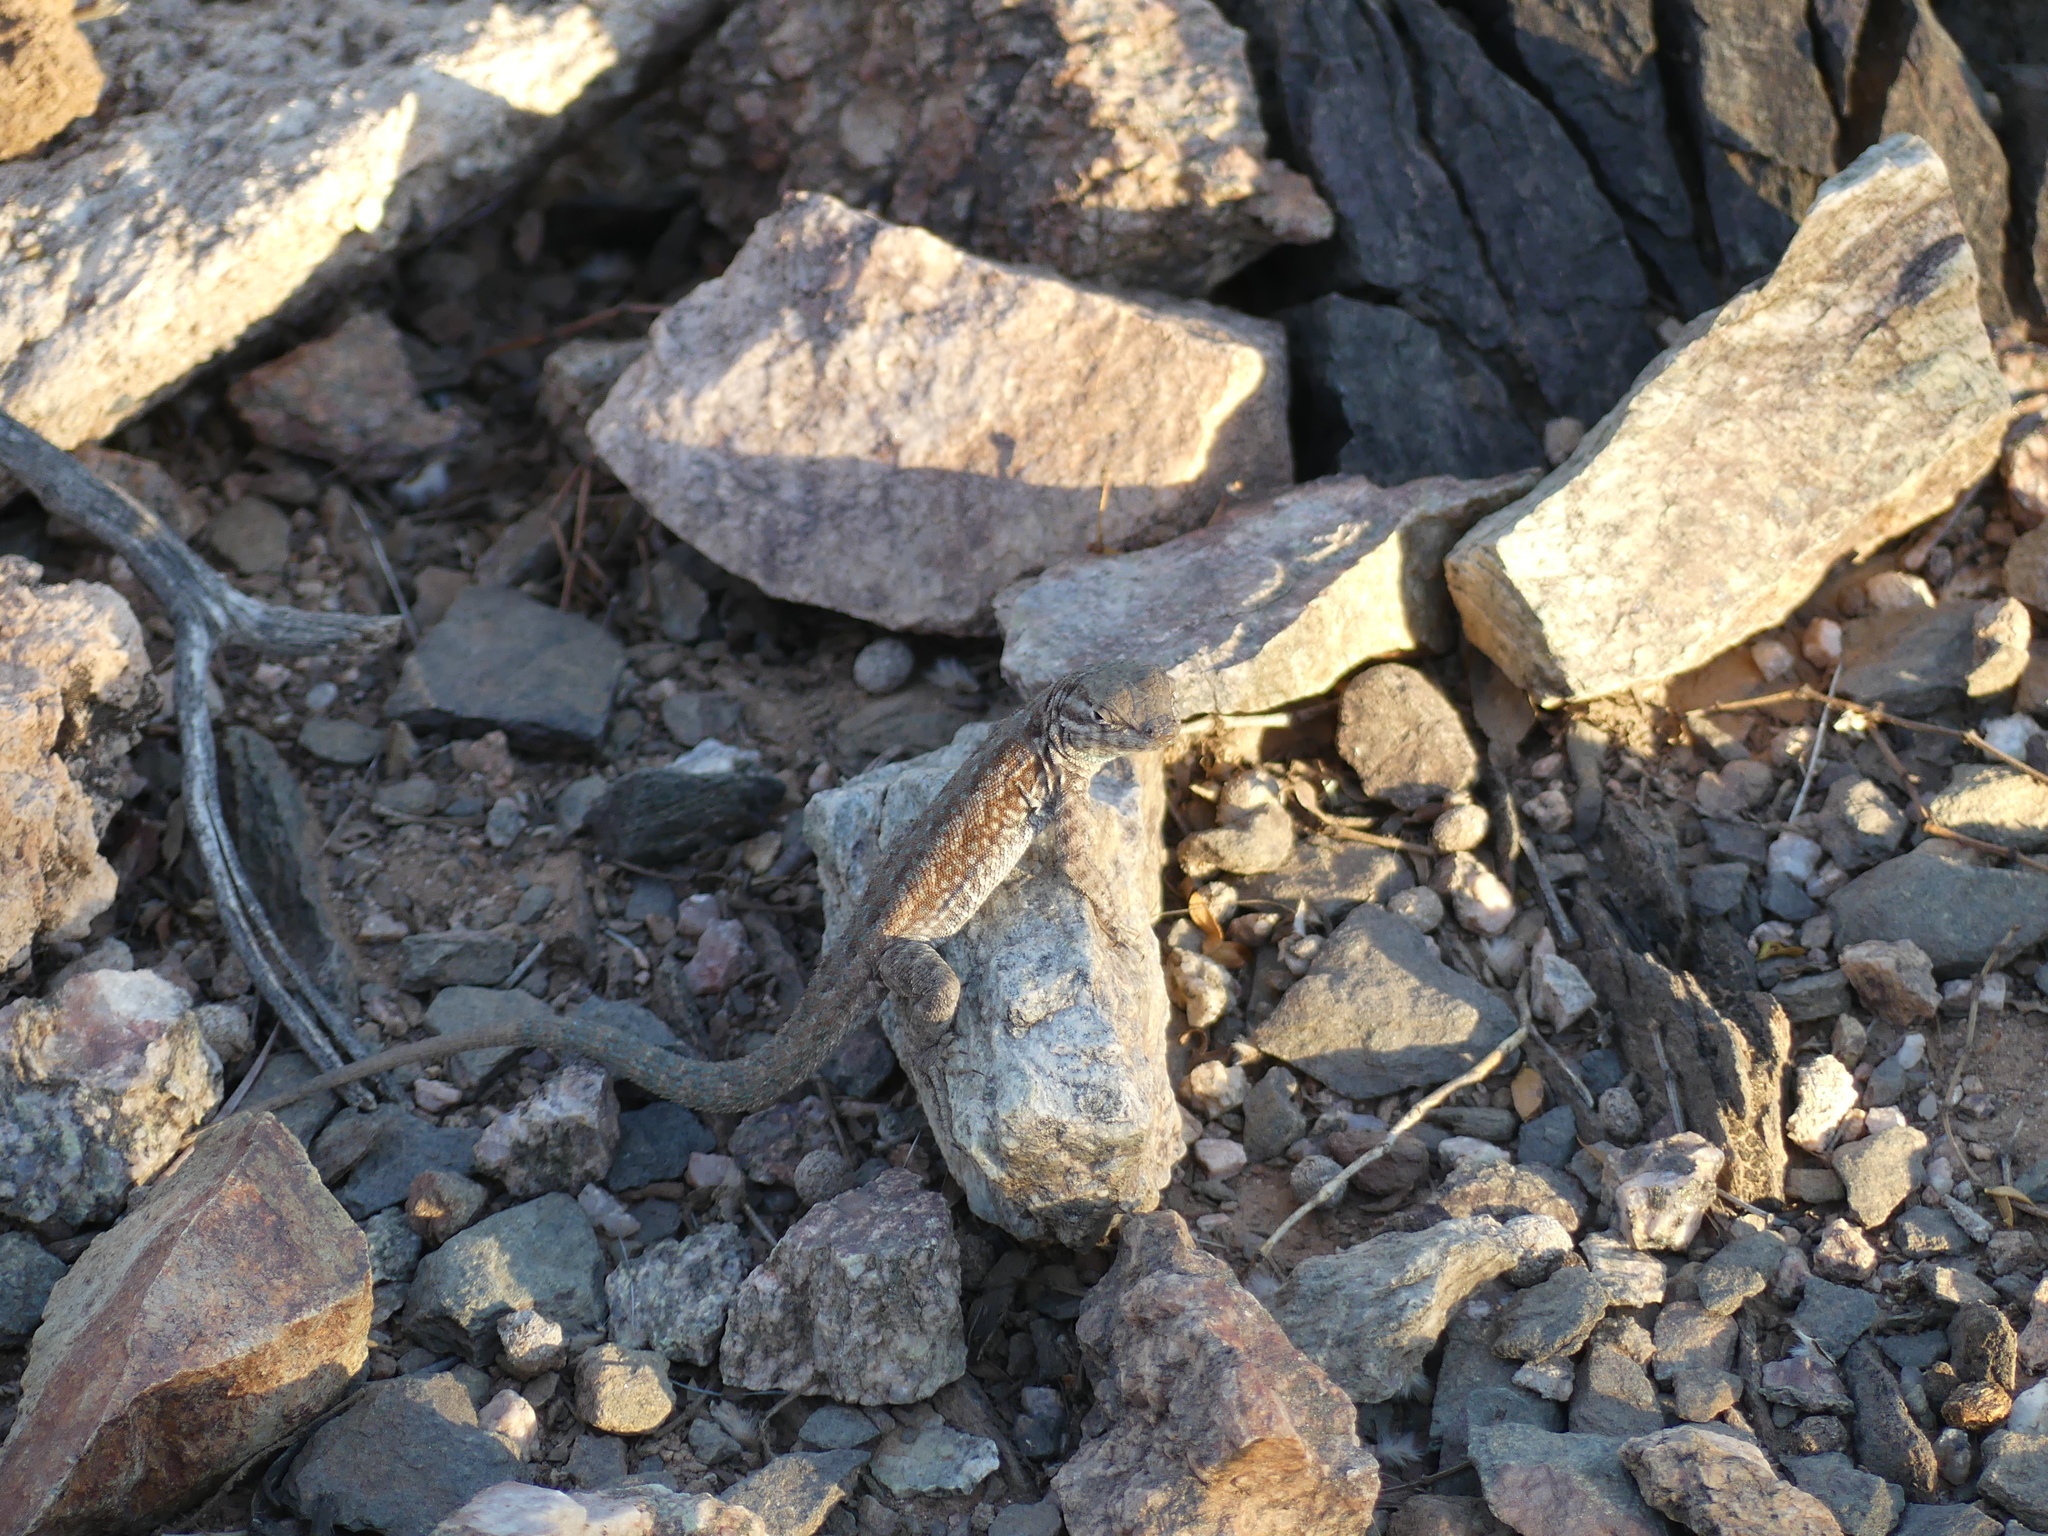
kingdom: Animalia
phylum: Chordata
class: Squamata
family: Phrynosomatidae
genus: Uta
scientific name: Uta stansburiana
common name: Side-blotched lizard
